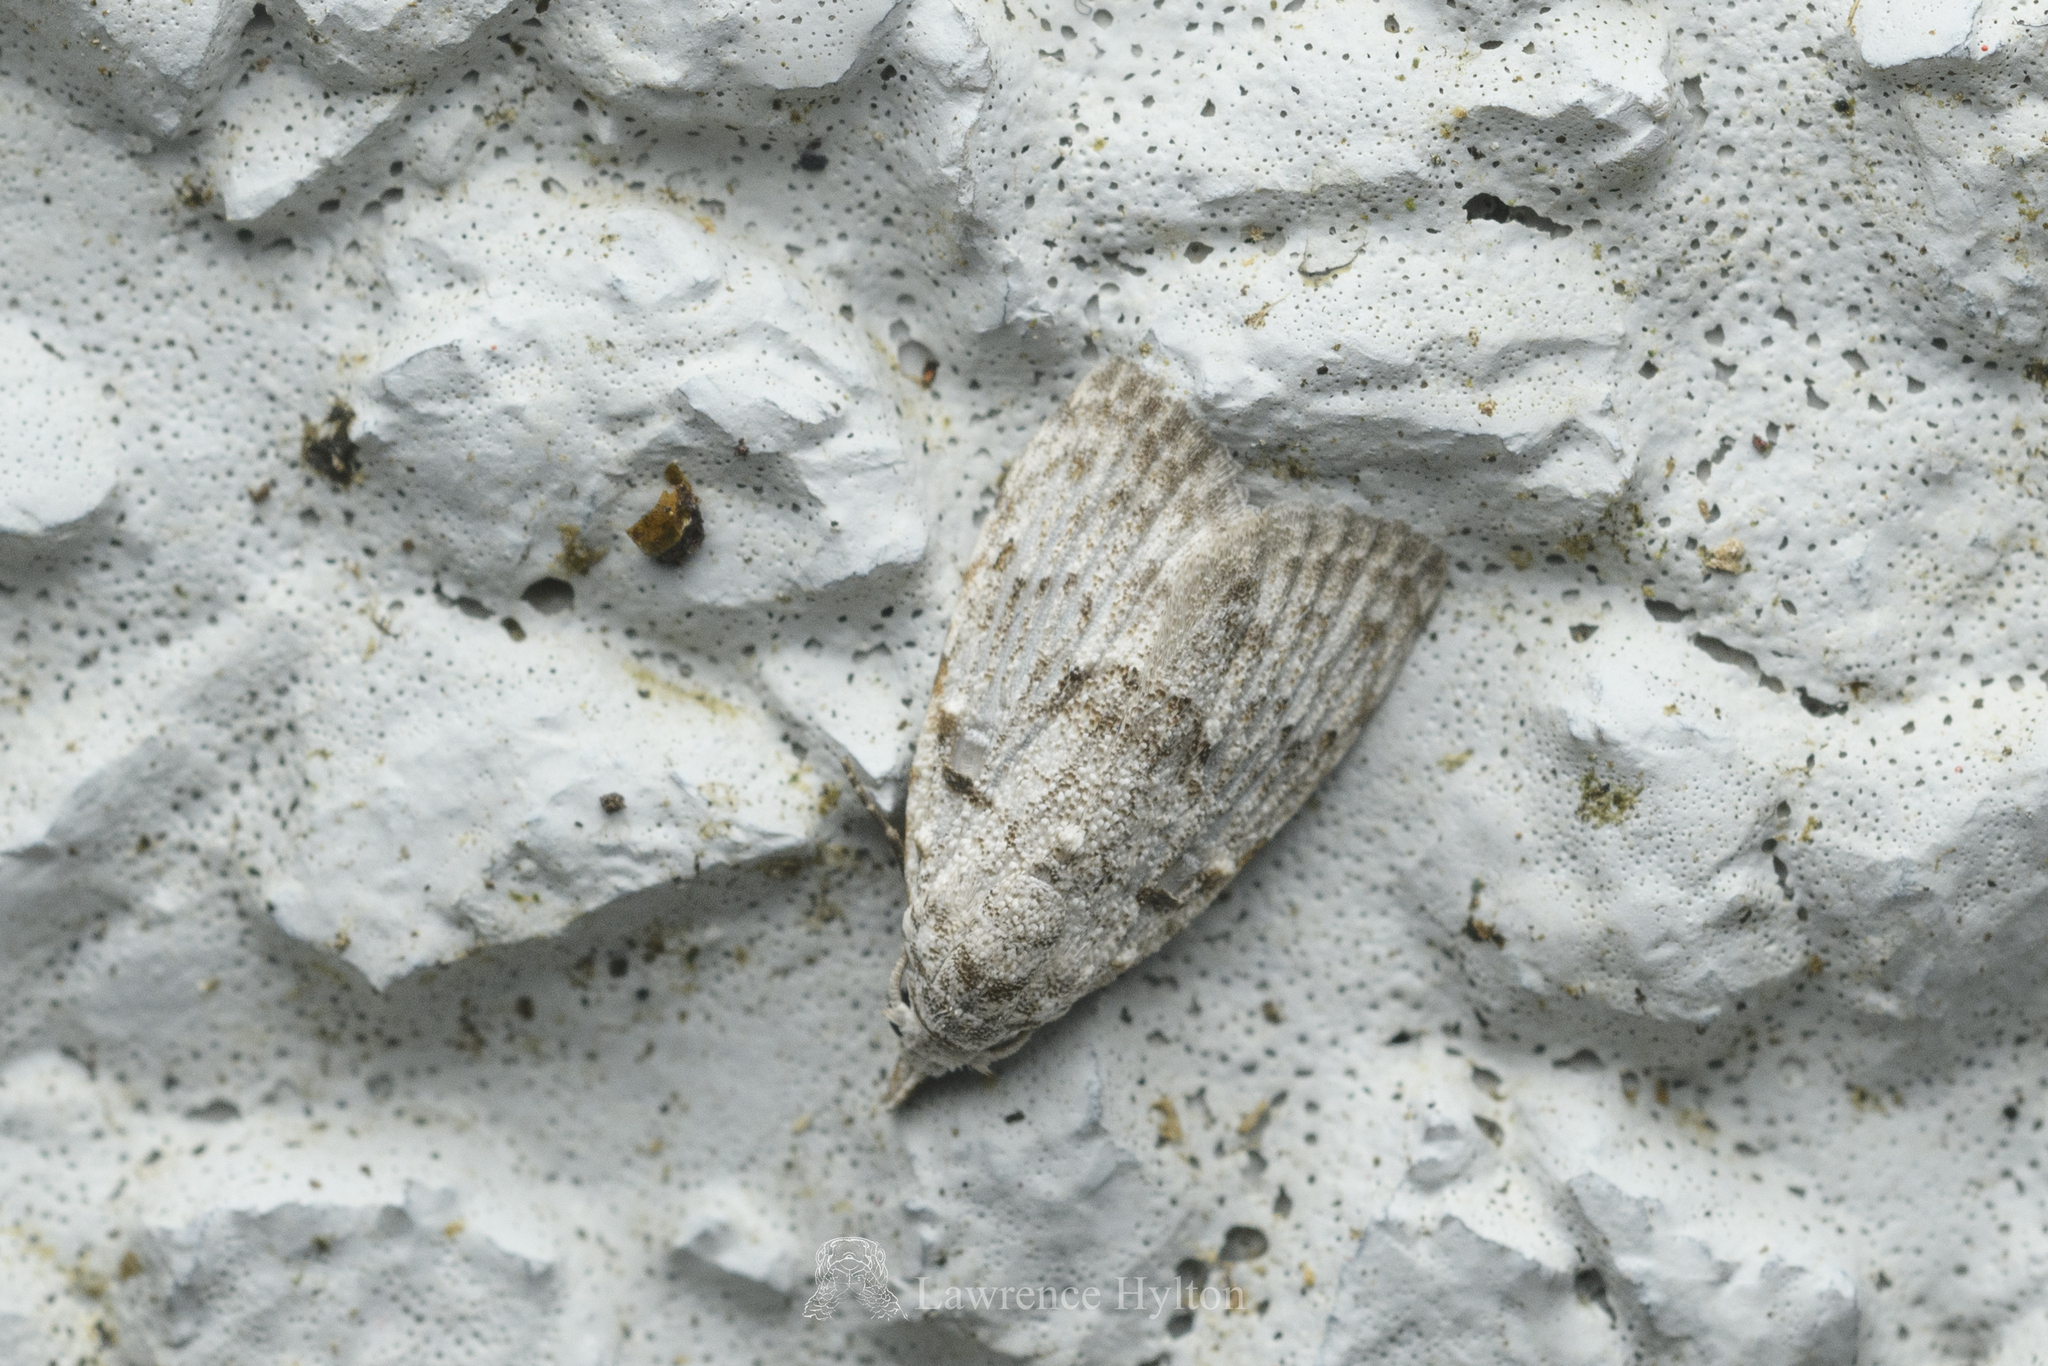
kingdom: Animalia
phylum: Arthropoda
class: Insecta
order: Lepidoptera
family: Nolidae
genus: Nola
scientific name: Nola thyrophora
